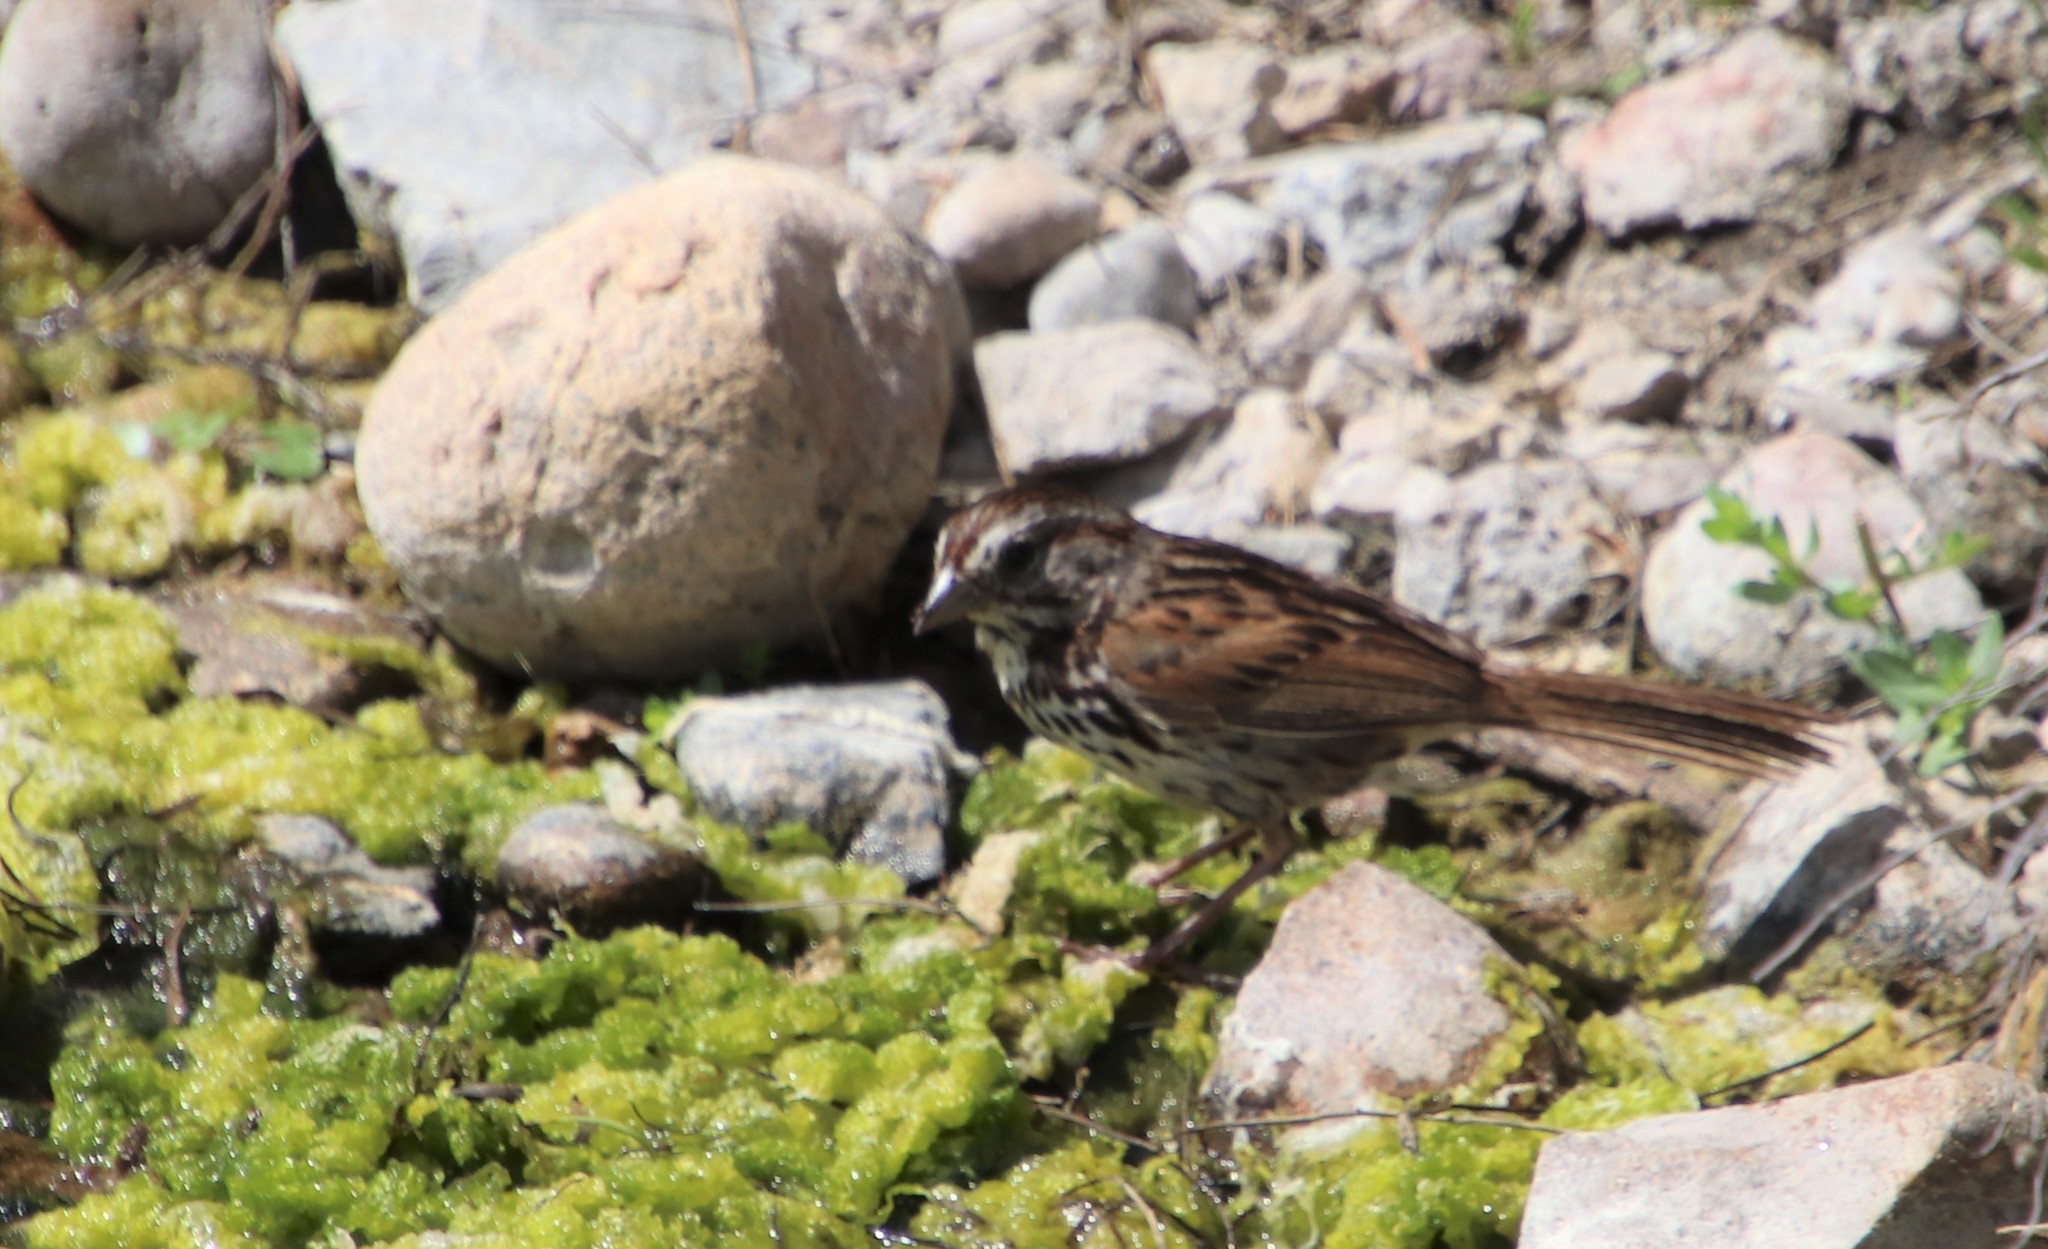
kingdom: Animalia
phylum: Chordata
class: Aves
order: Passeriformes
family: Passerellidae
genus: Melospiza
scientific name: Melospiza melodia
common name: Song sparrow
